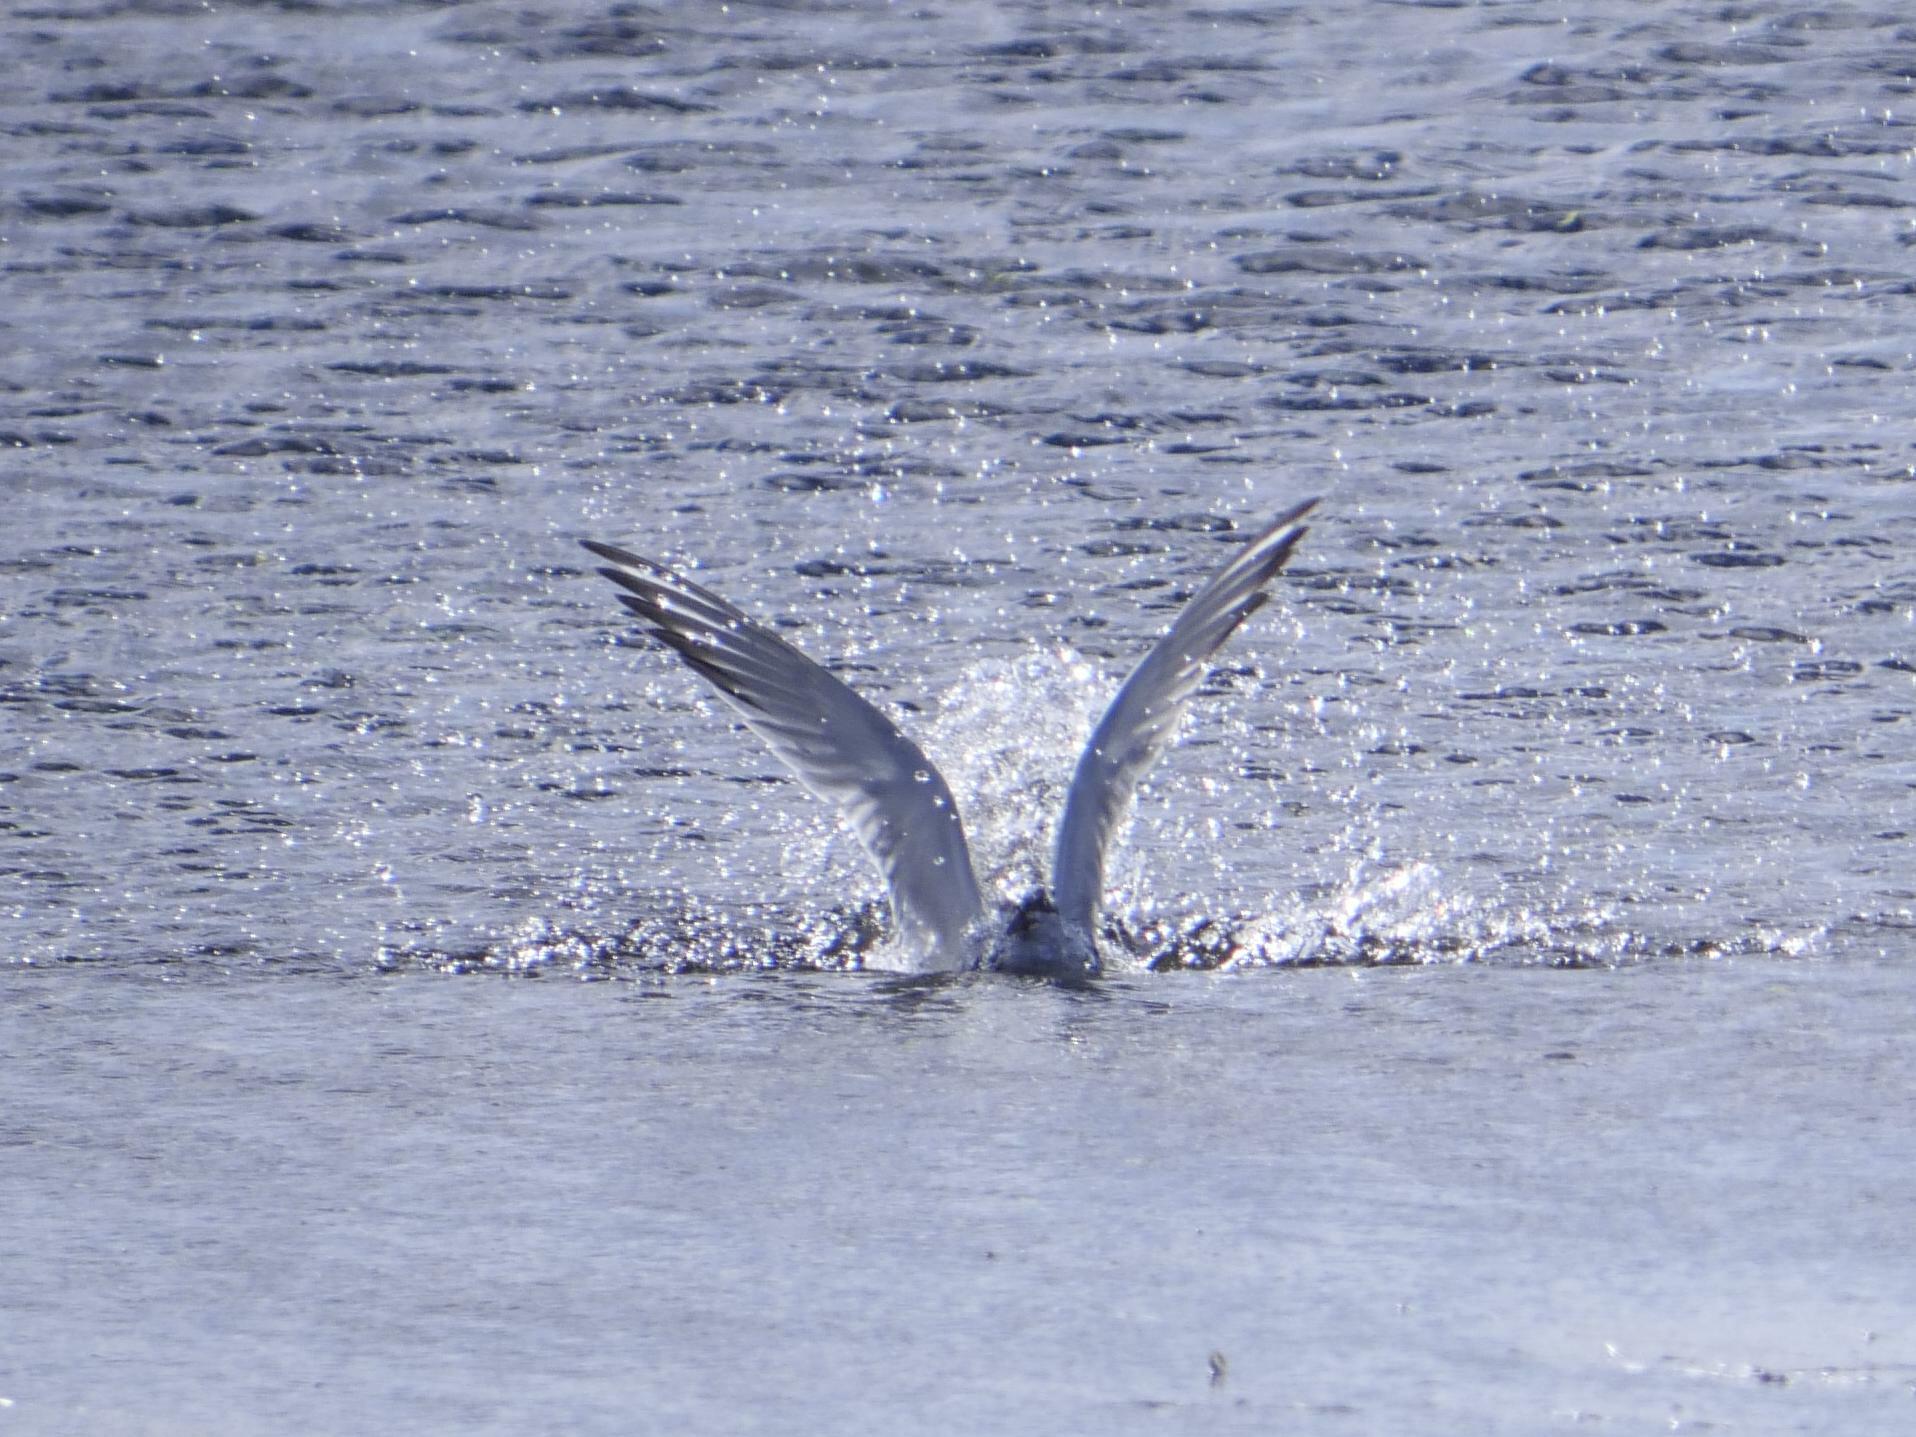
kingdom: Animalia
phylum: Chordata
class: Aves
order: Charadriiformes
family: Laridae
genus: Sterna
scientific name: Sterna hirundo
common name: Common tern
